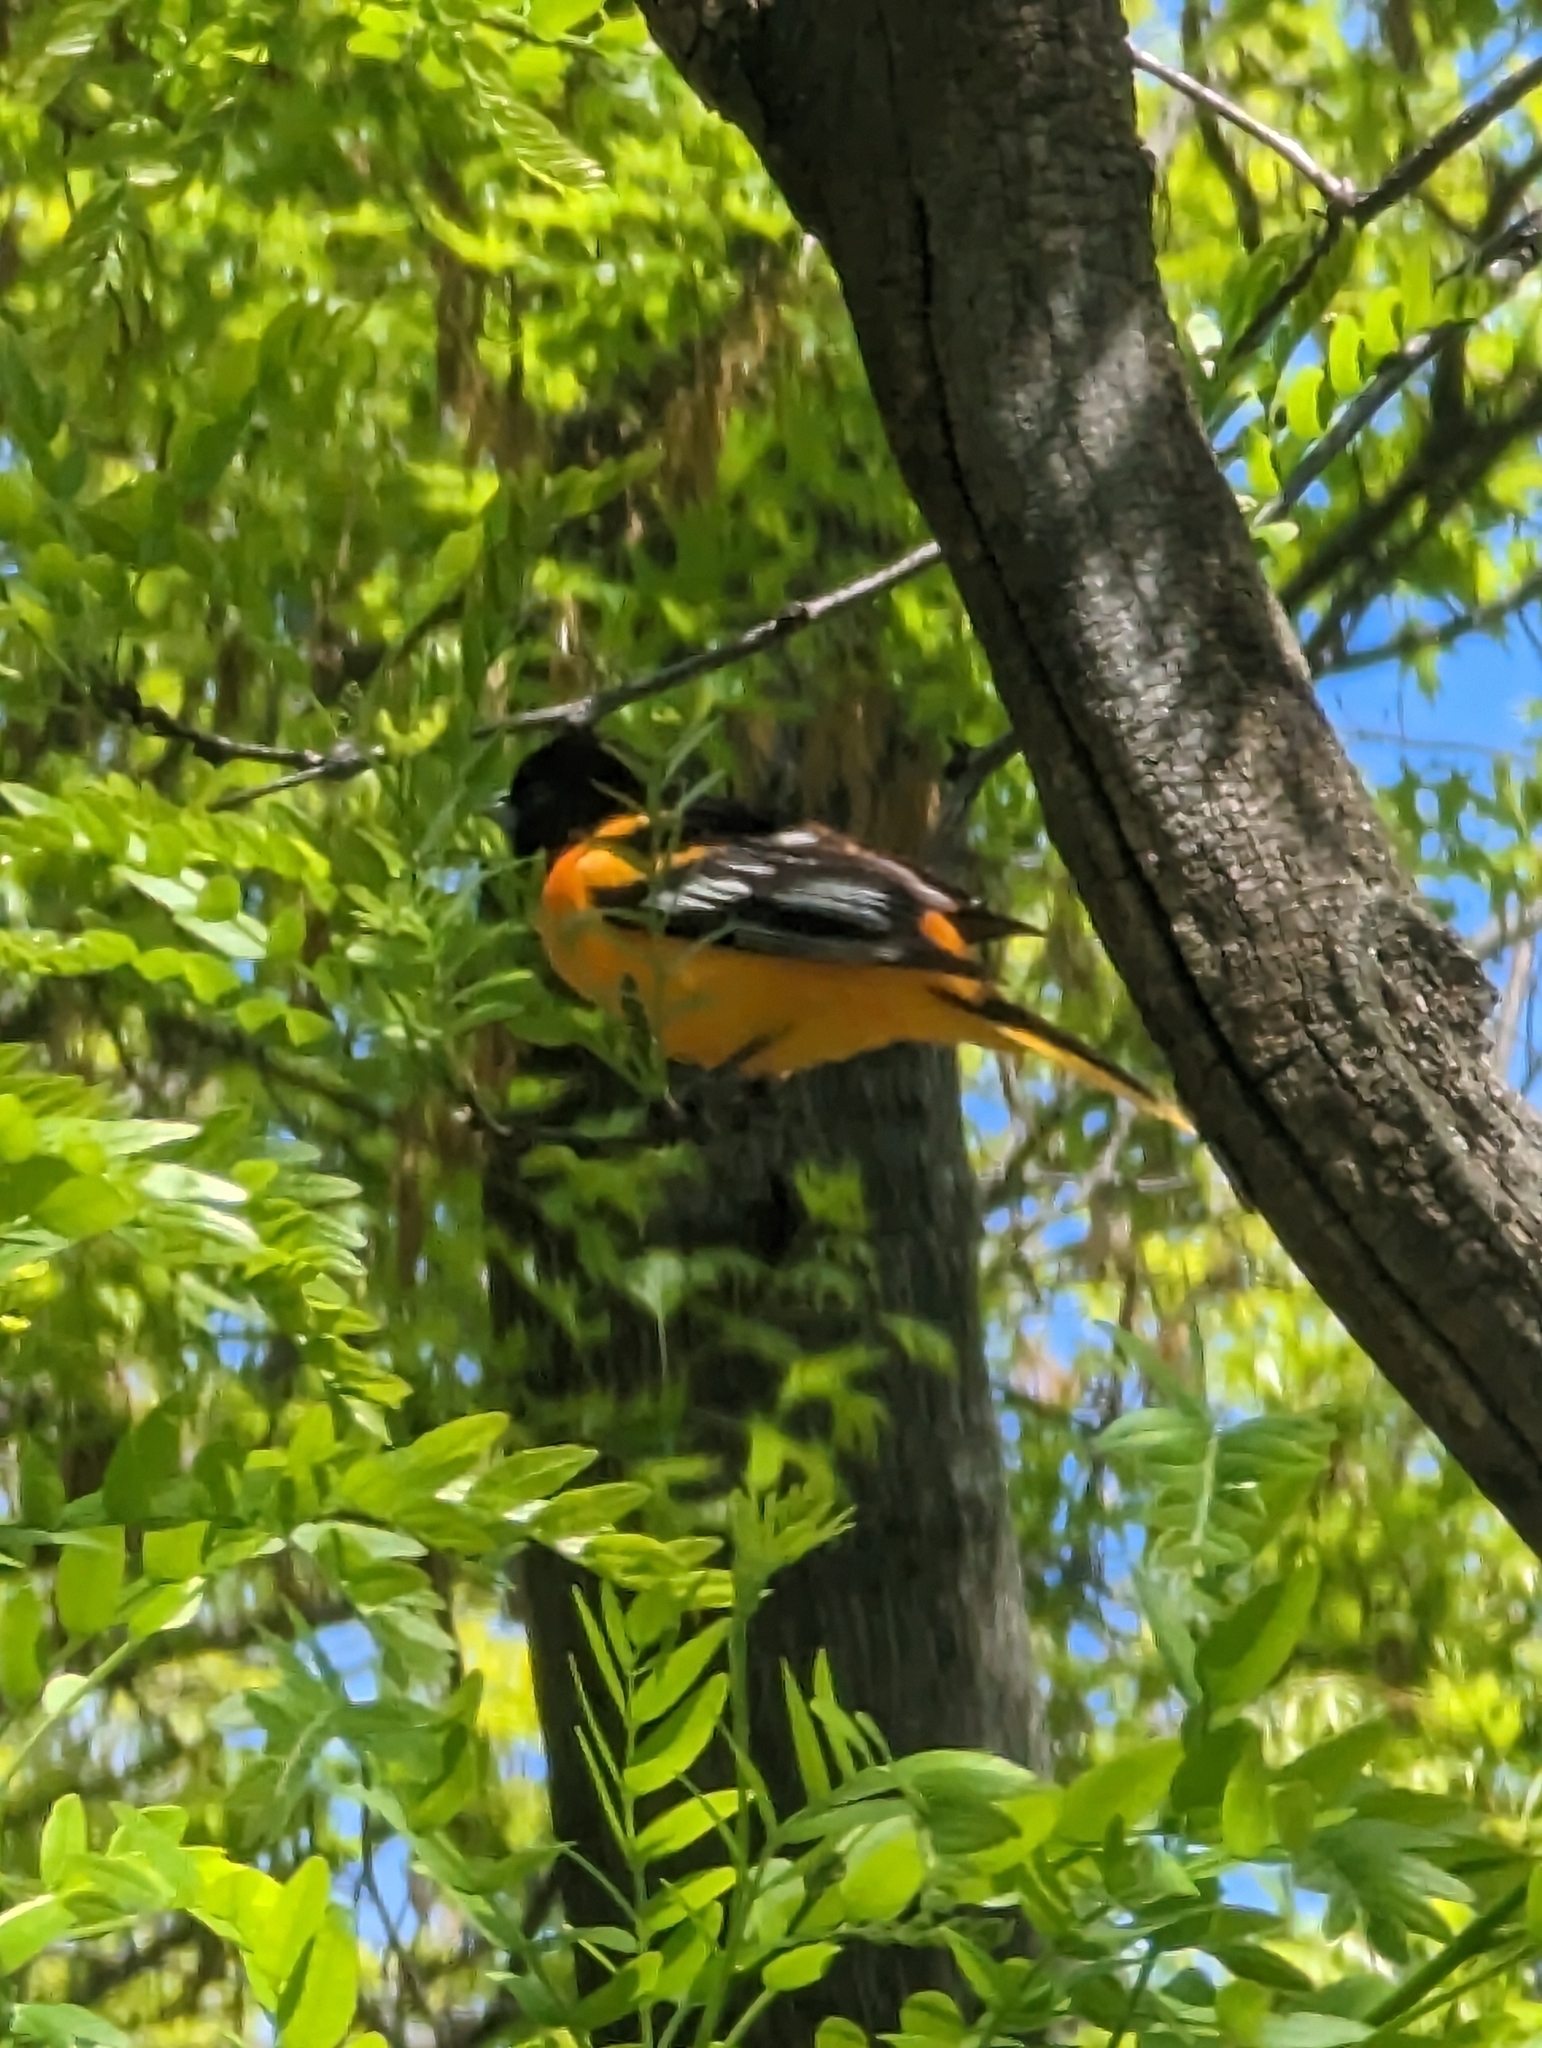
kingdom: Animalia
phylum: Chordata
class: Aves
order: Passeriformes
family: Icteridae
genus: Icterus
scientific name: Icterus galbula
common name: Baltimore oriole
